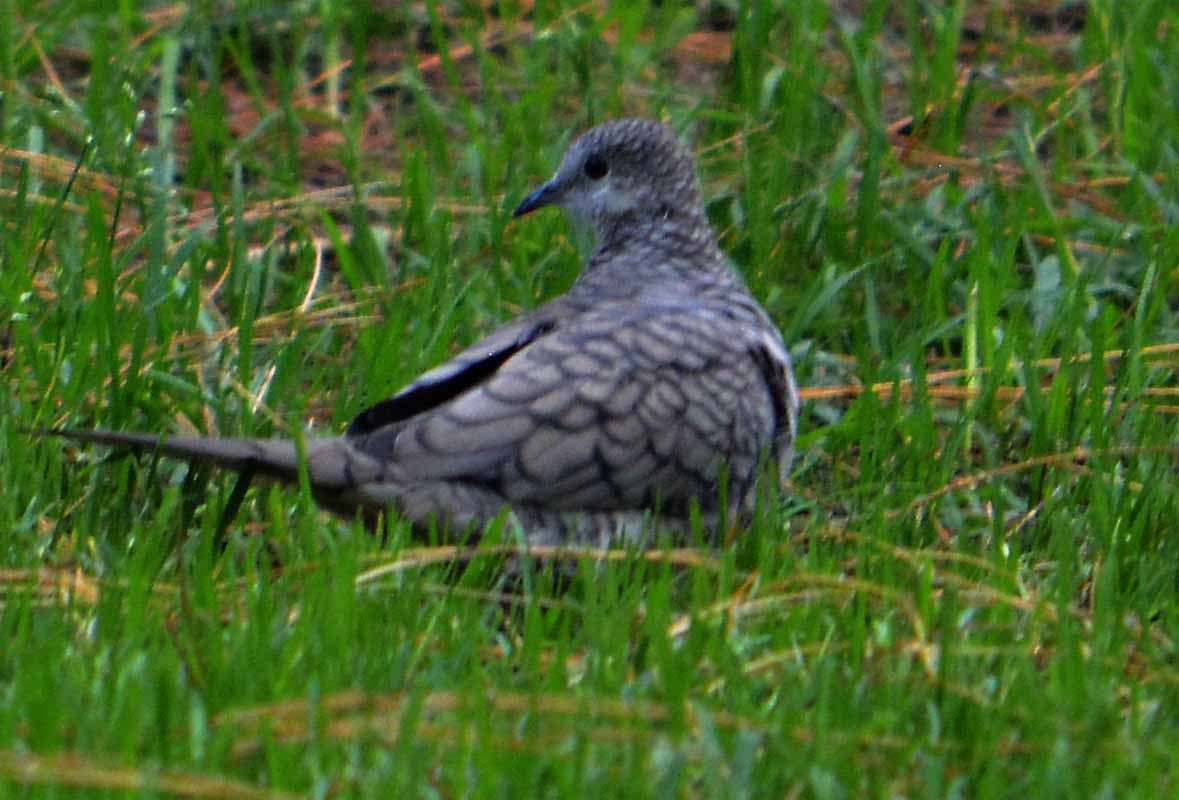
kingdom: Animalia
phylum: Chordata
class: Aves
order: Columbiformes
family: Columbidae
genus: Columbina
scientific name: Columbina inca
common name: Inca dove
